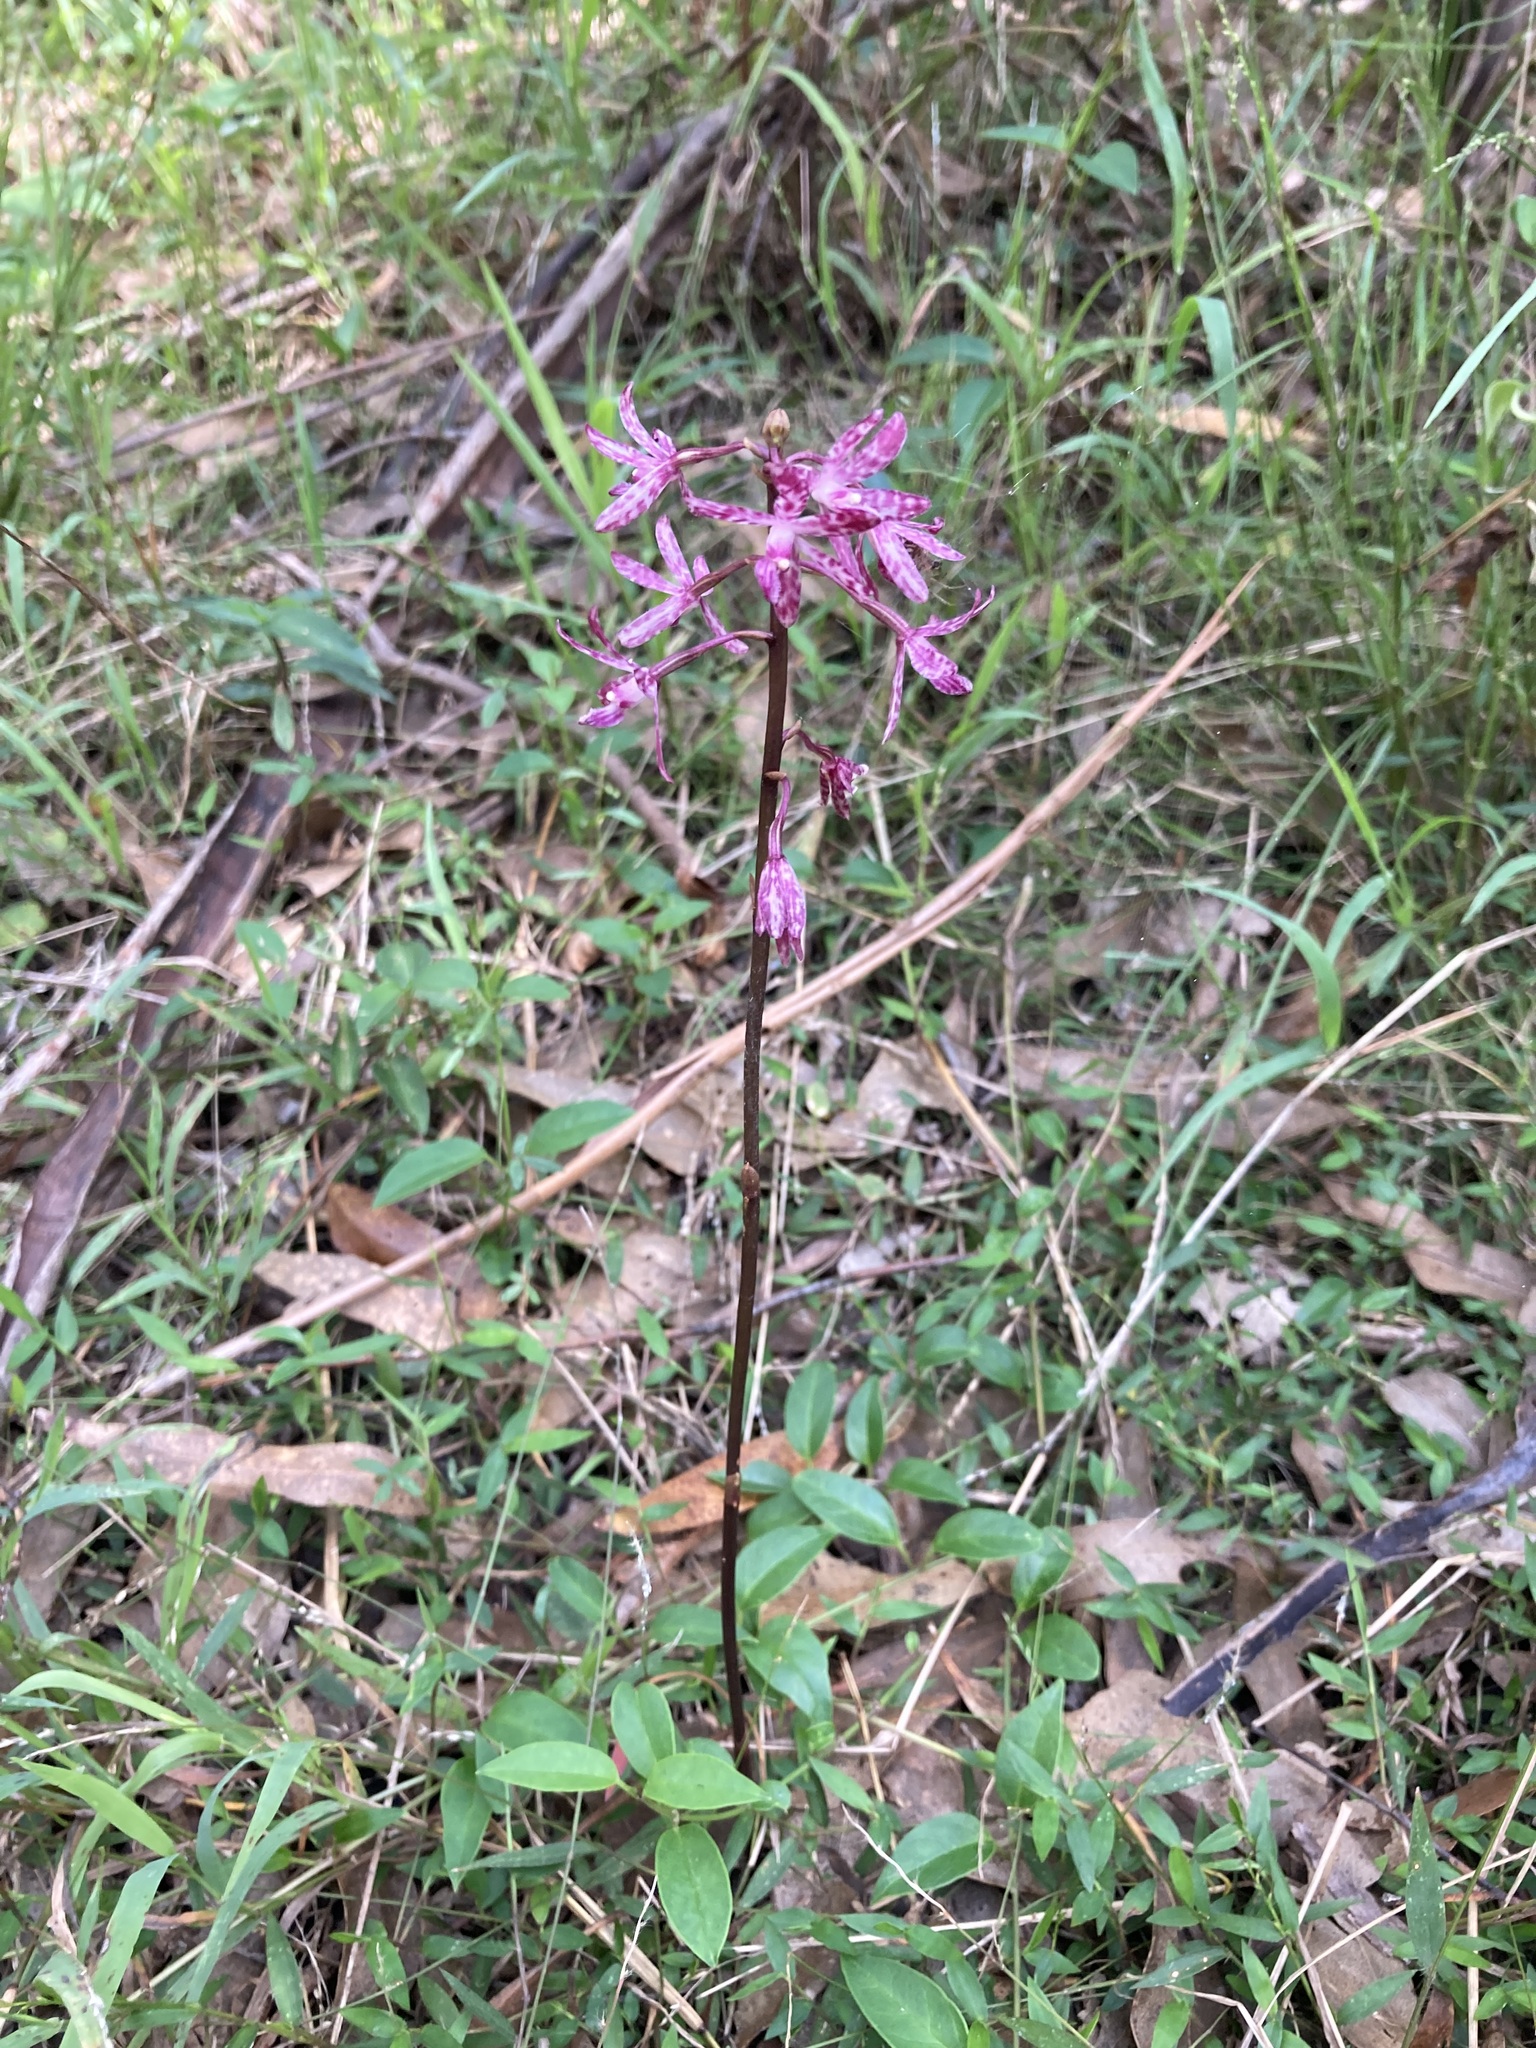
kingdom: Plantae
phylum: Tracheophyta
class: Liliopsida
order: Asparagales
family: Orchidaceae
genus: Dipodium
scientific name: Dipodium squamatum
